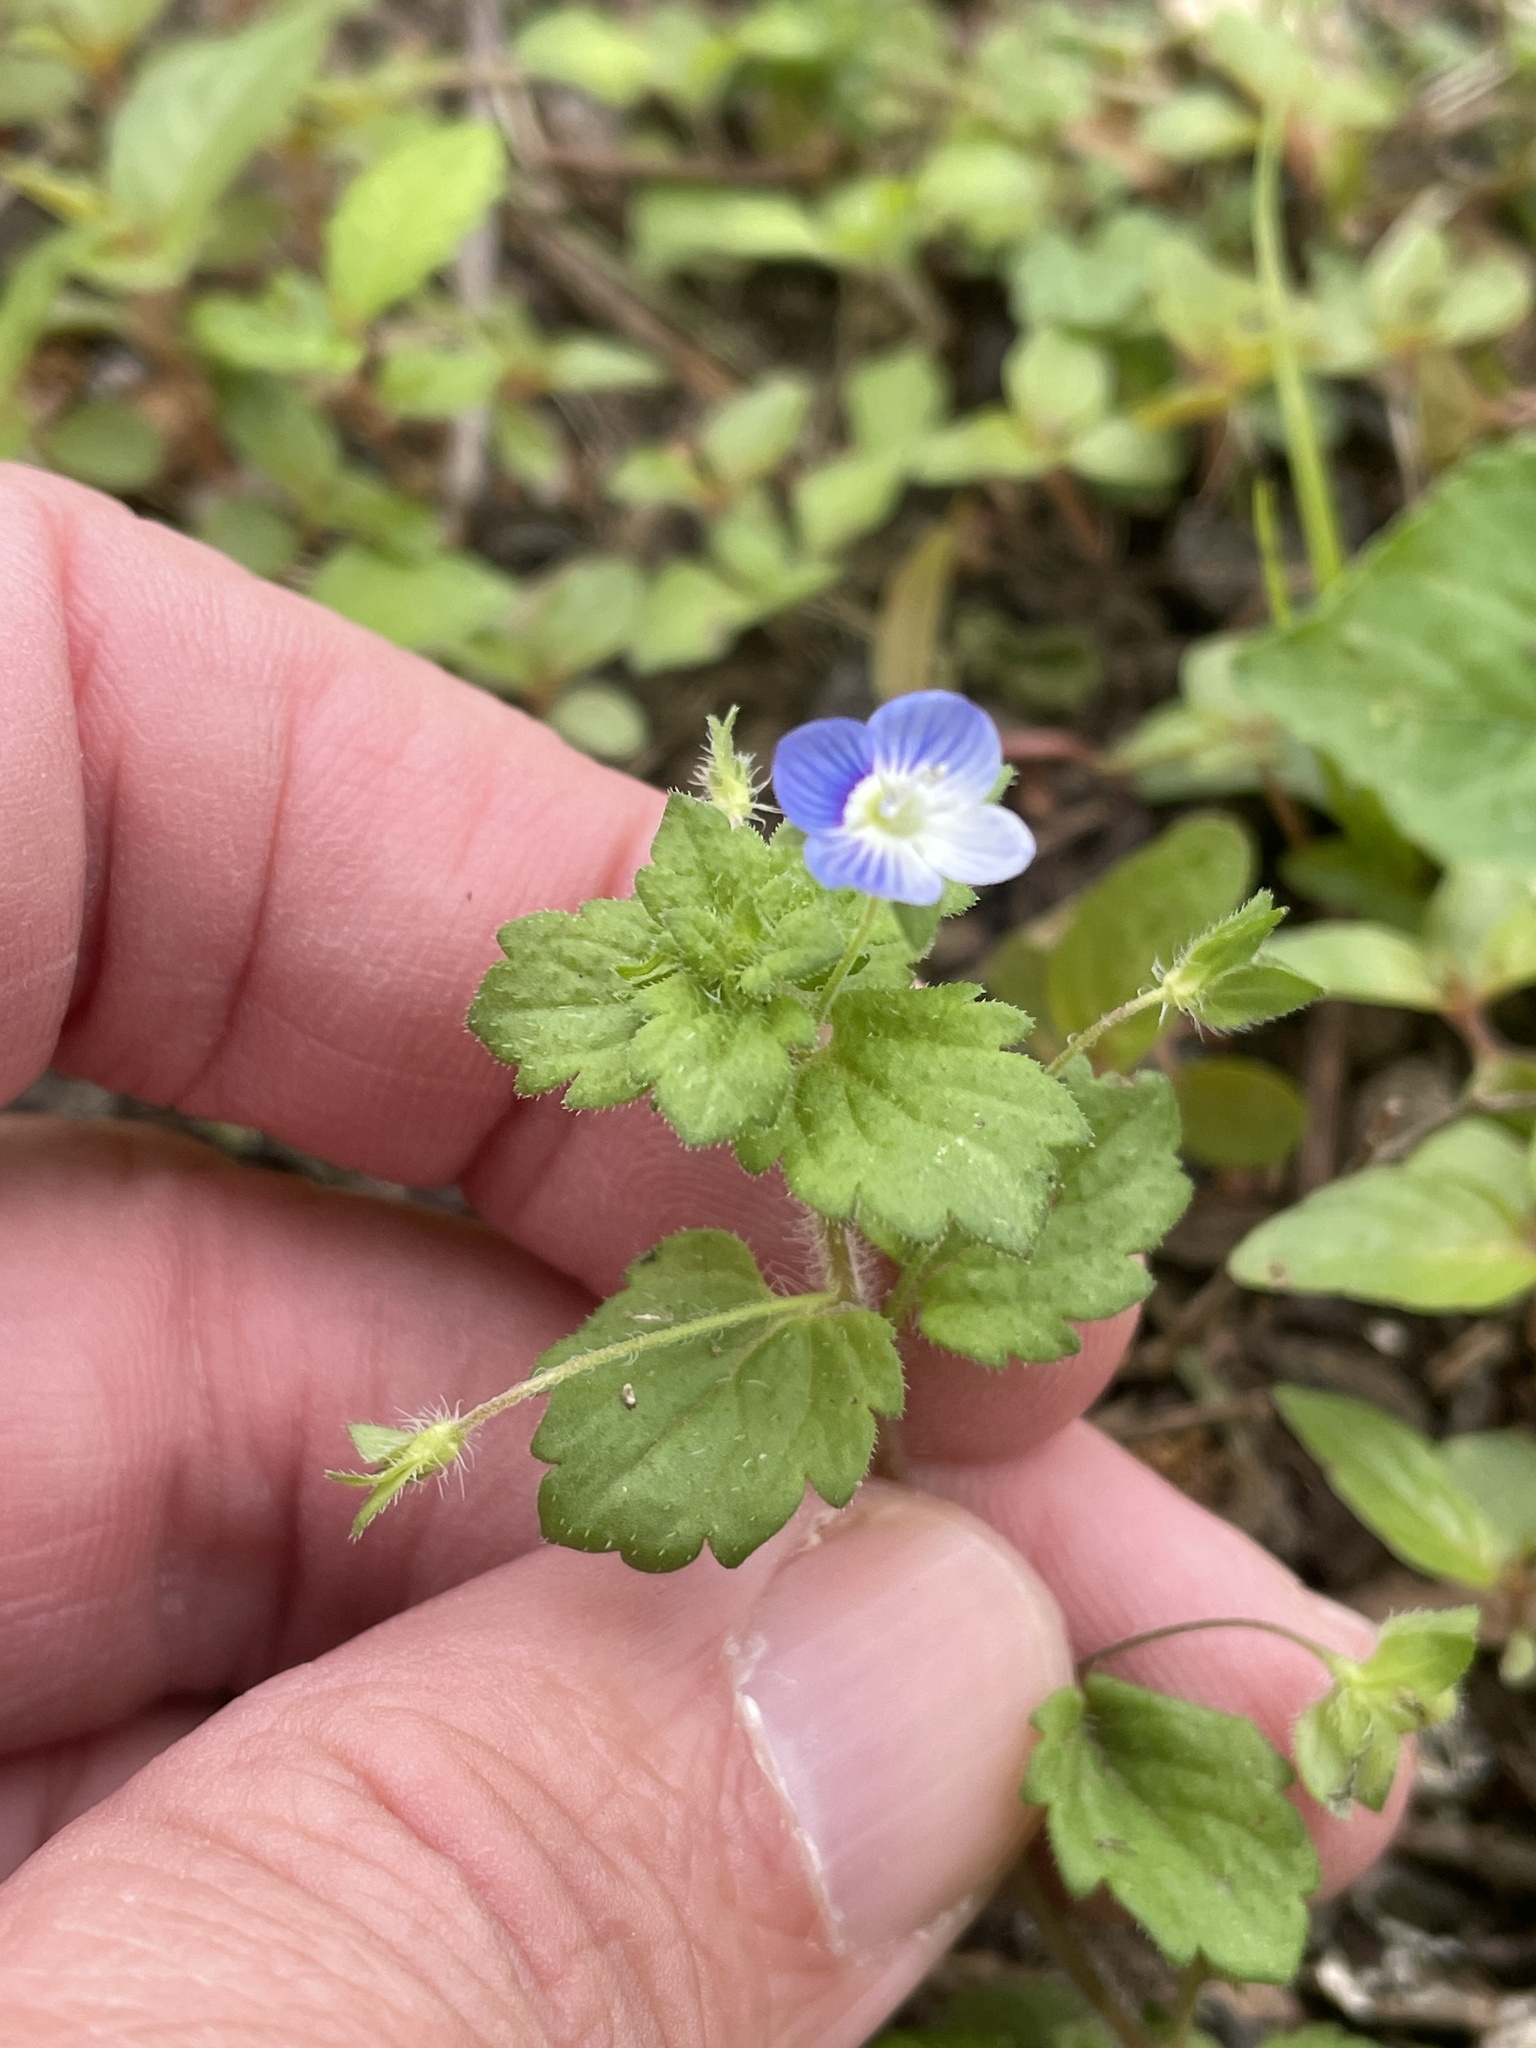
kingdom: Plantae
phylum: Tracheophyta
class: Magnoliopsida
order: Lamiales
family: Plantaginaceae
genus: Veronica
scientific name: Veronica persica
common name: Common field-speedwell
